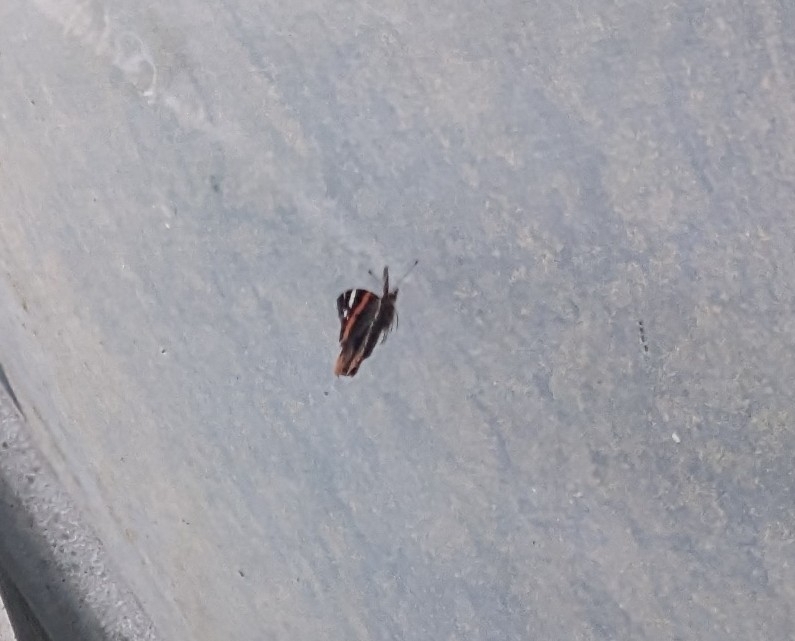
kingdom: Animalia
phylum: Arthropoda
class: Insecta
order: Lepidoptera
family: Nymphalidae
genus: Vanessa
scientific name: Vanessa atalanta
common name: Red admiral
